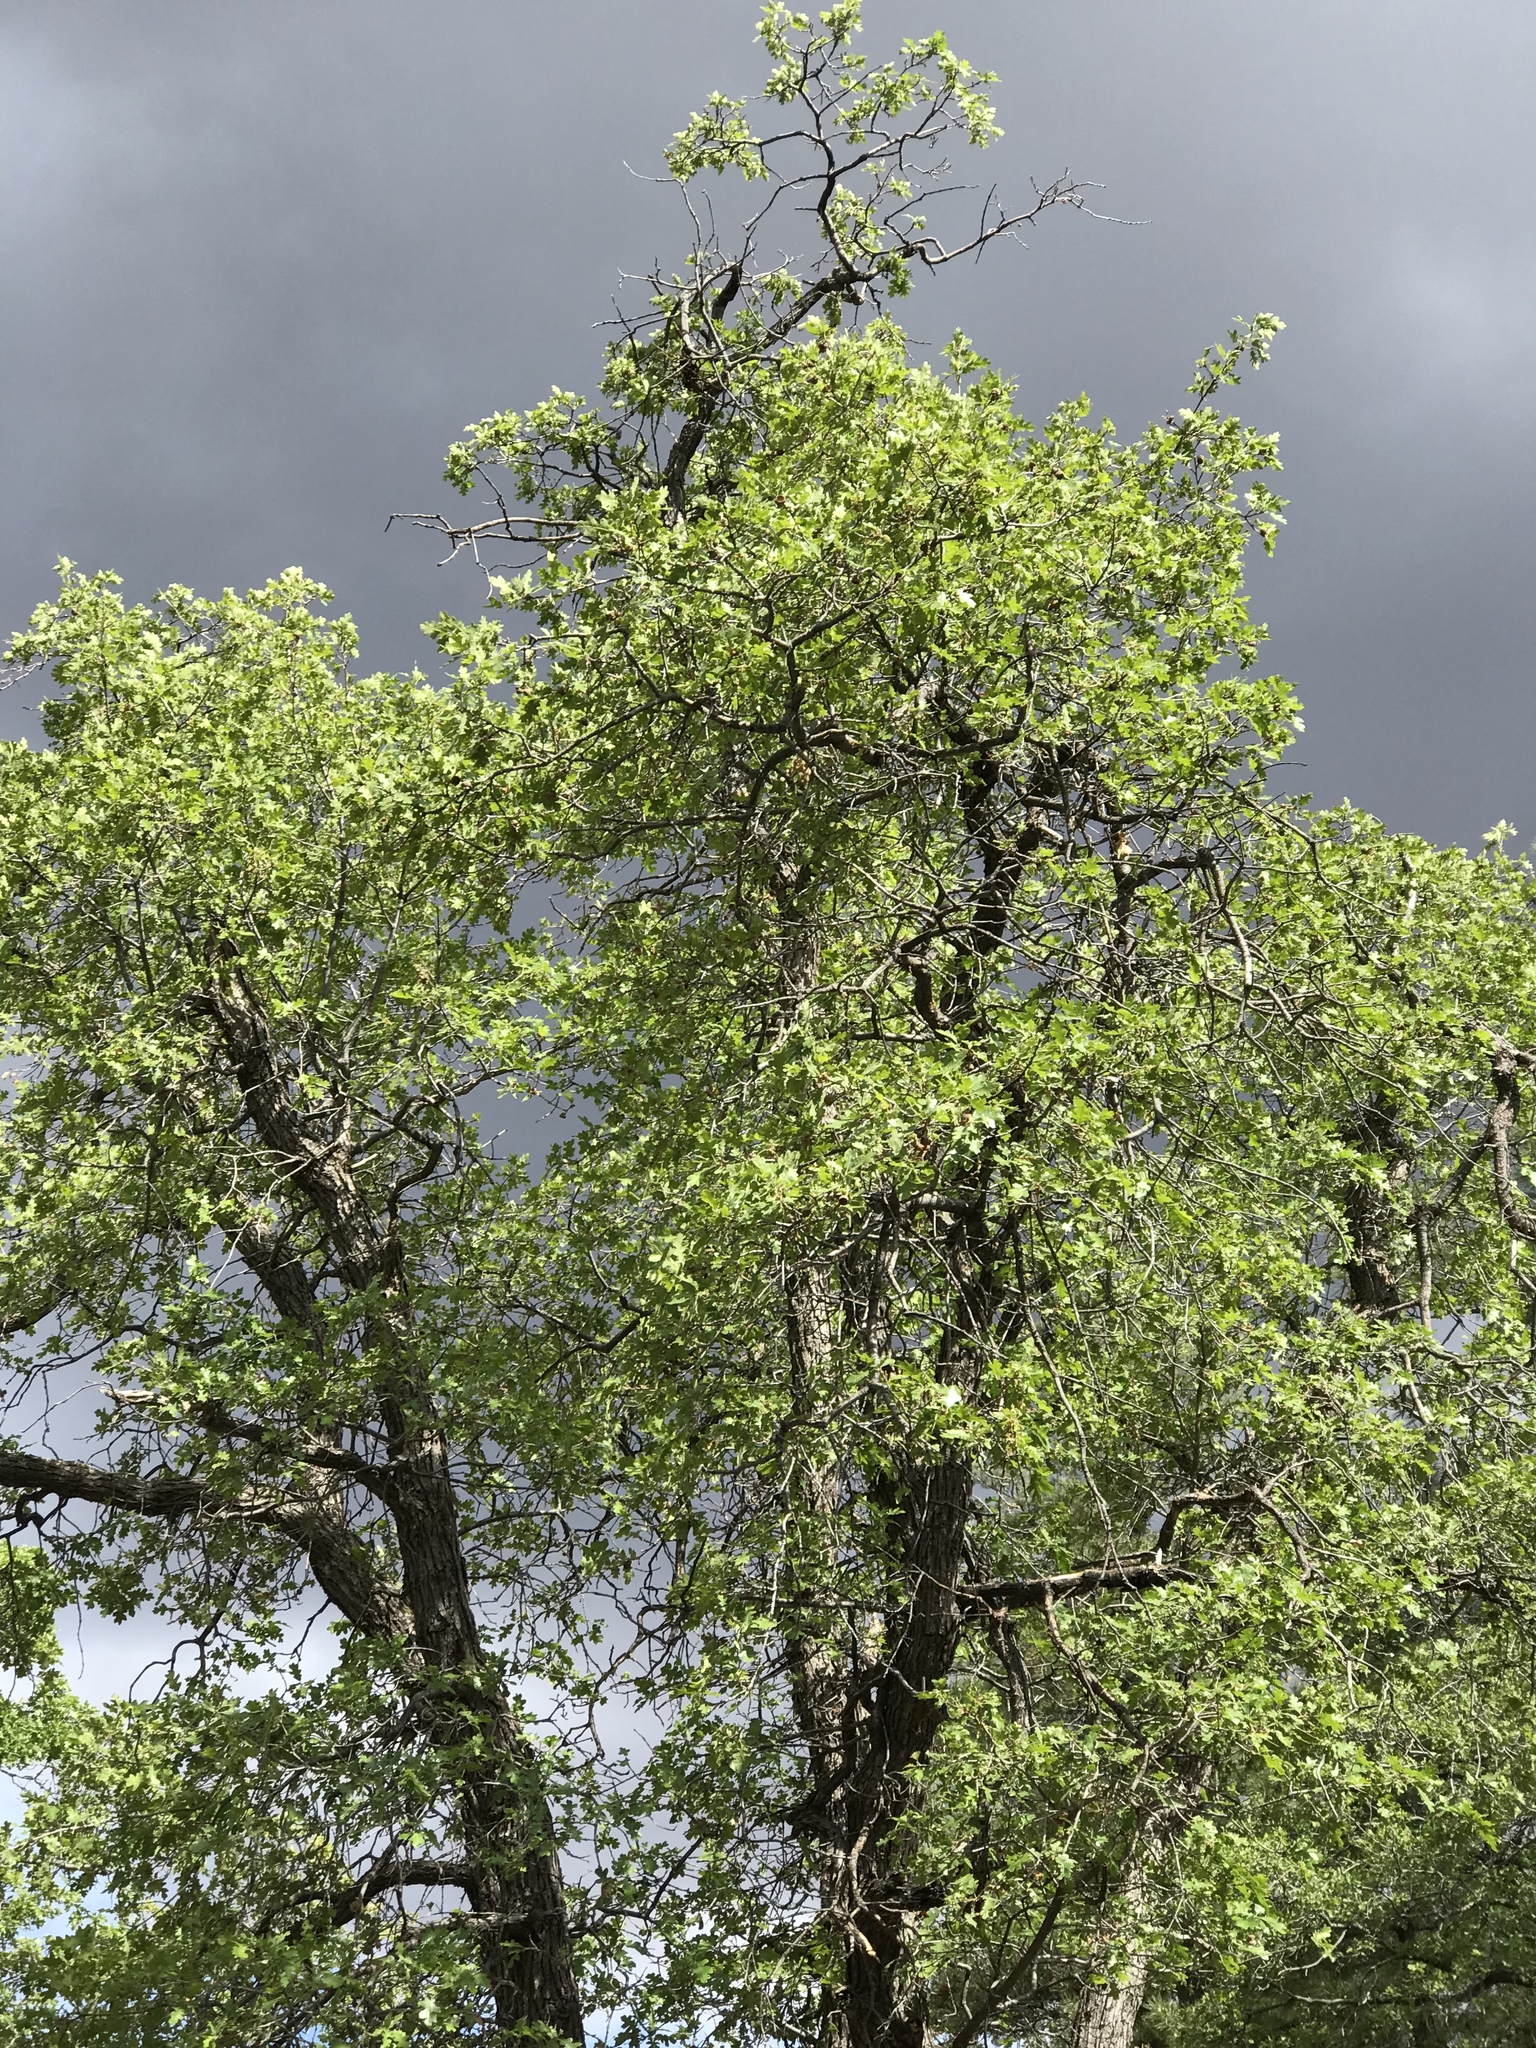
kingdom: Plantae
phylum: Tracheophyta
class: Magnoliopsida
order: Fagales
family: Fagaceae
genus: Quercus
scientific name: Quercus gambelii
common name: Gambel oak
